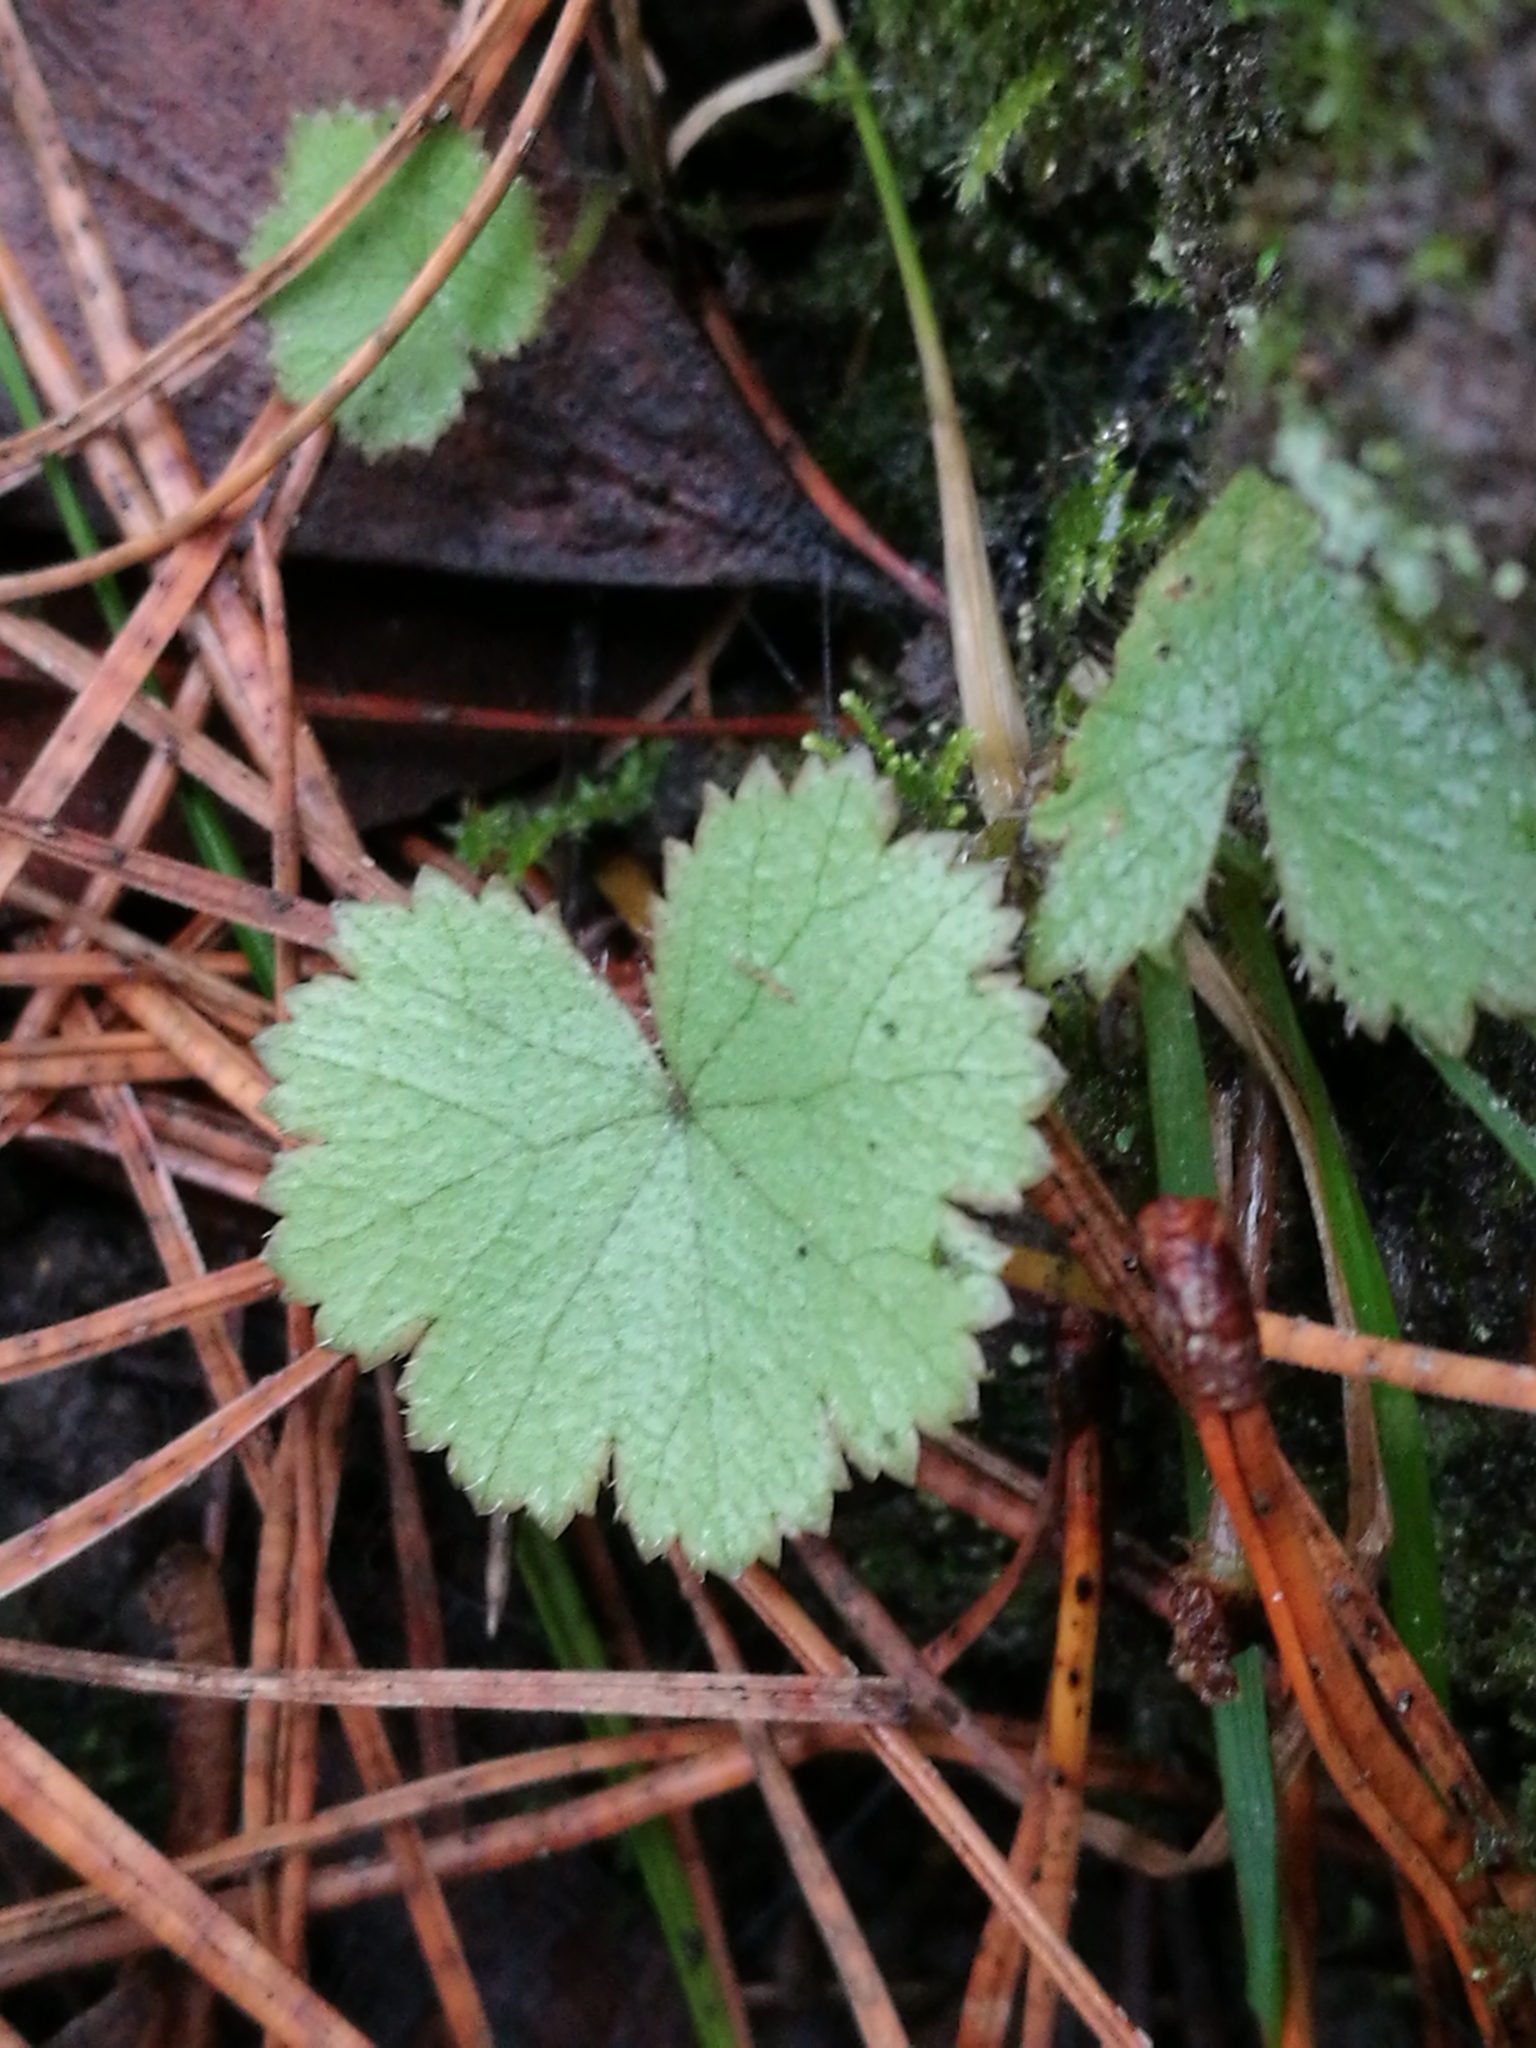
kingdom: Plantae
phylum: Tracheophyta
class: Magnoliopsida
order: Apiales
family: Araliaceae
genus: Hydrocotyle
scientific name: Hydrocotyle moschata
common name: Hairy pennywort
